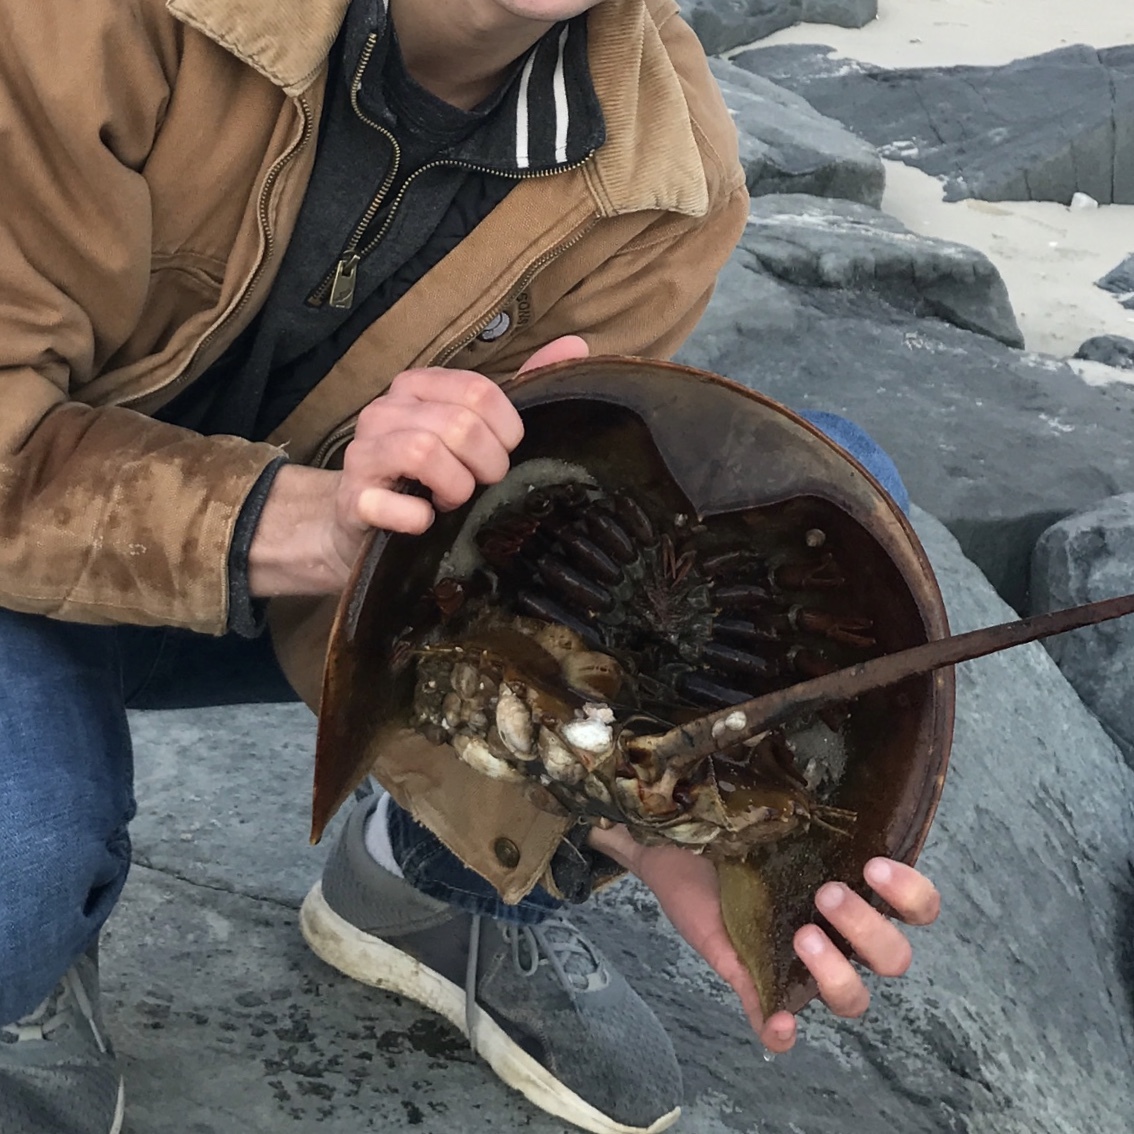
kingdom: Animalia
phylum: Arthropoda
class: Merostomata
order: Xiphosurida
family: Limulidae
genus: Limulus
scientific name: Limulus polyphemus
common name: Horseshoe crab
